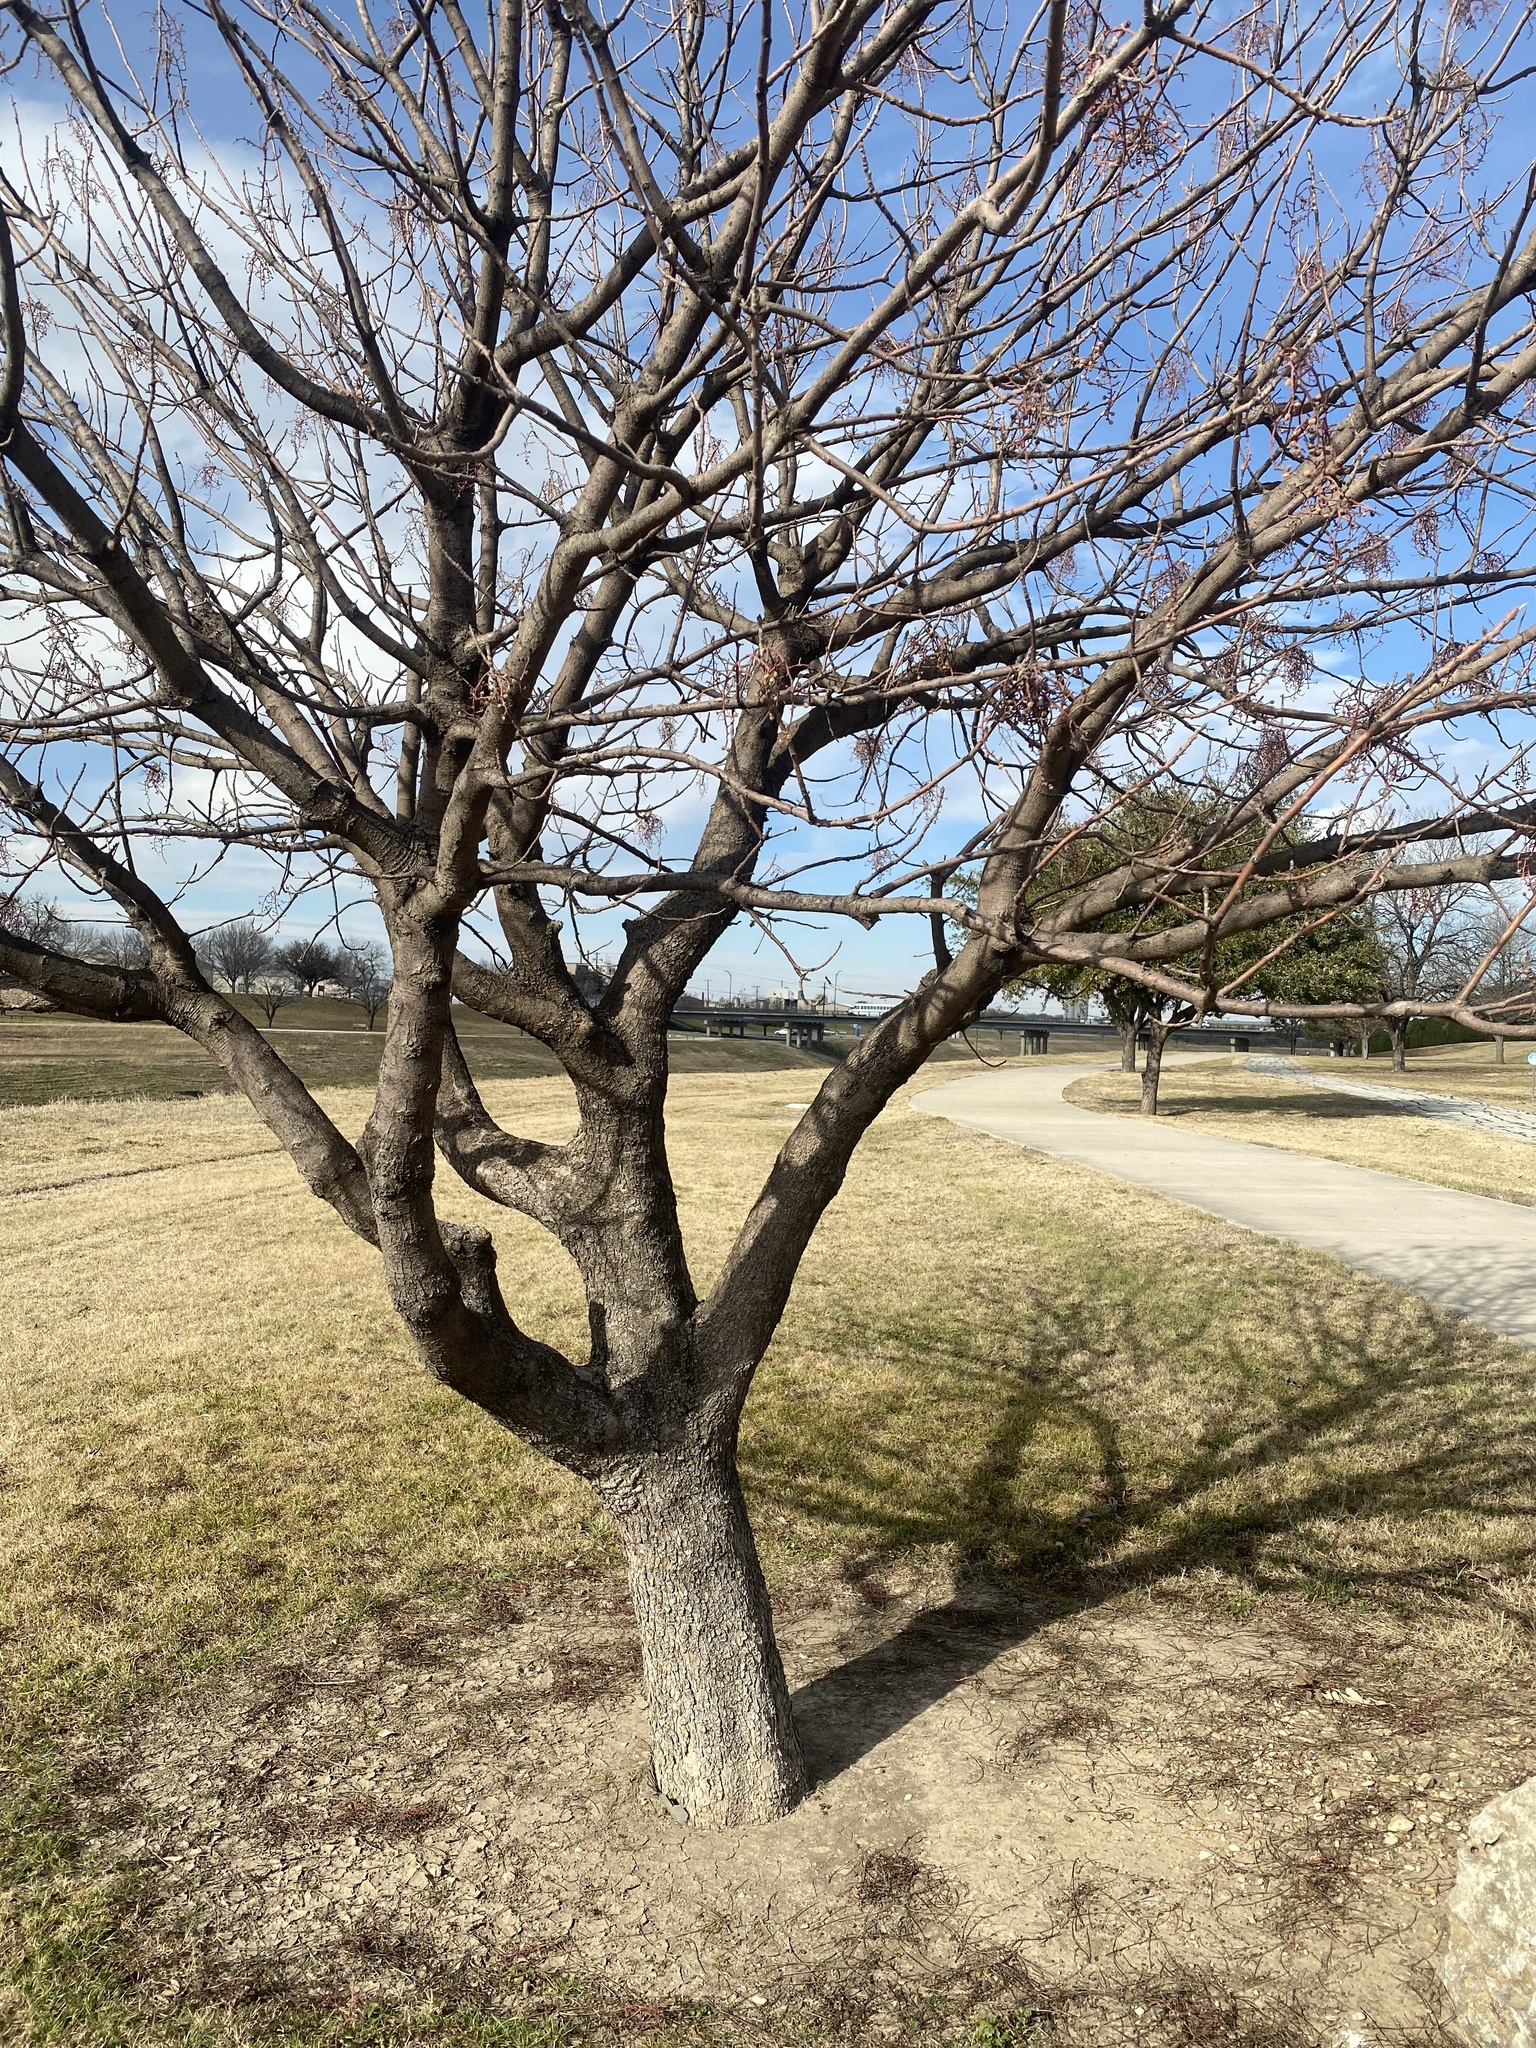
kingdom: Plantae
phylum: Tracheophyta
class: Magnoliopsida
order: Sapindales
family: Anacardiaceae
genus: Pistacia
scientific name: Pistacia chinensis
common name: Chinese pistache
